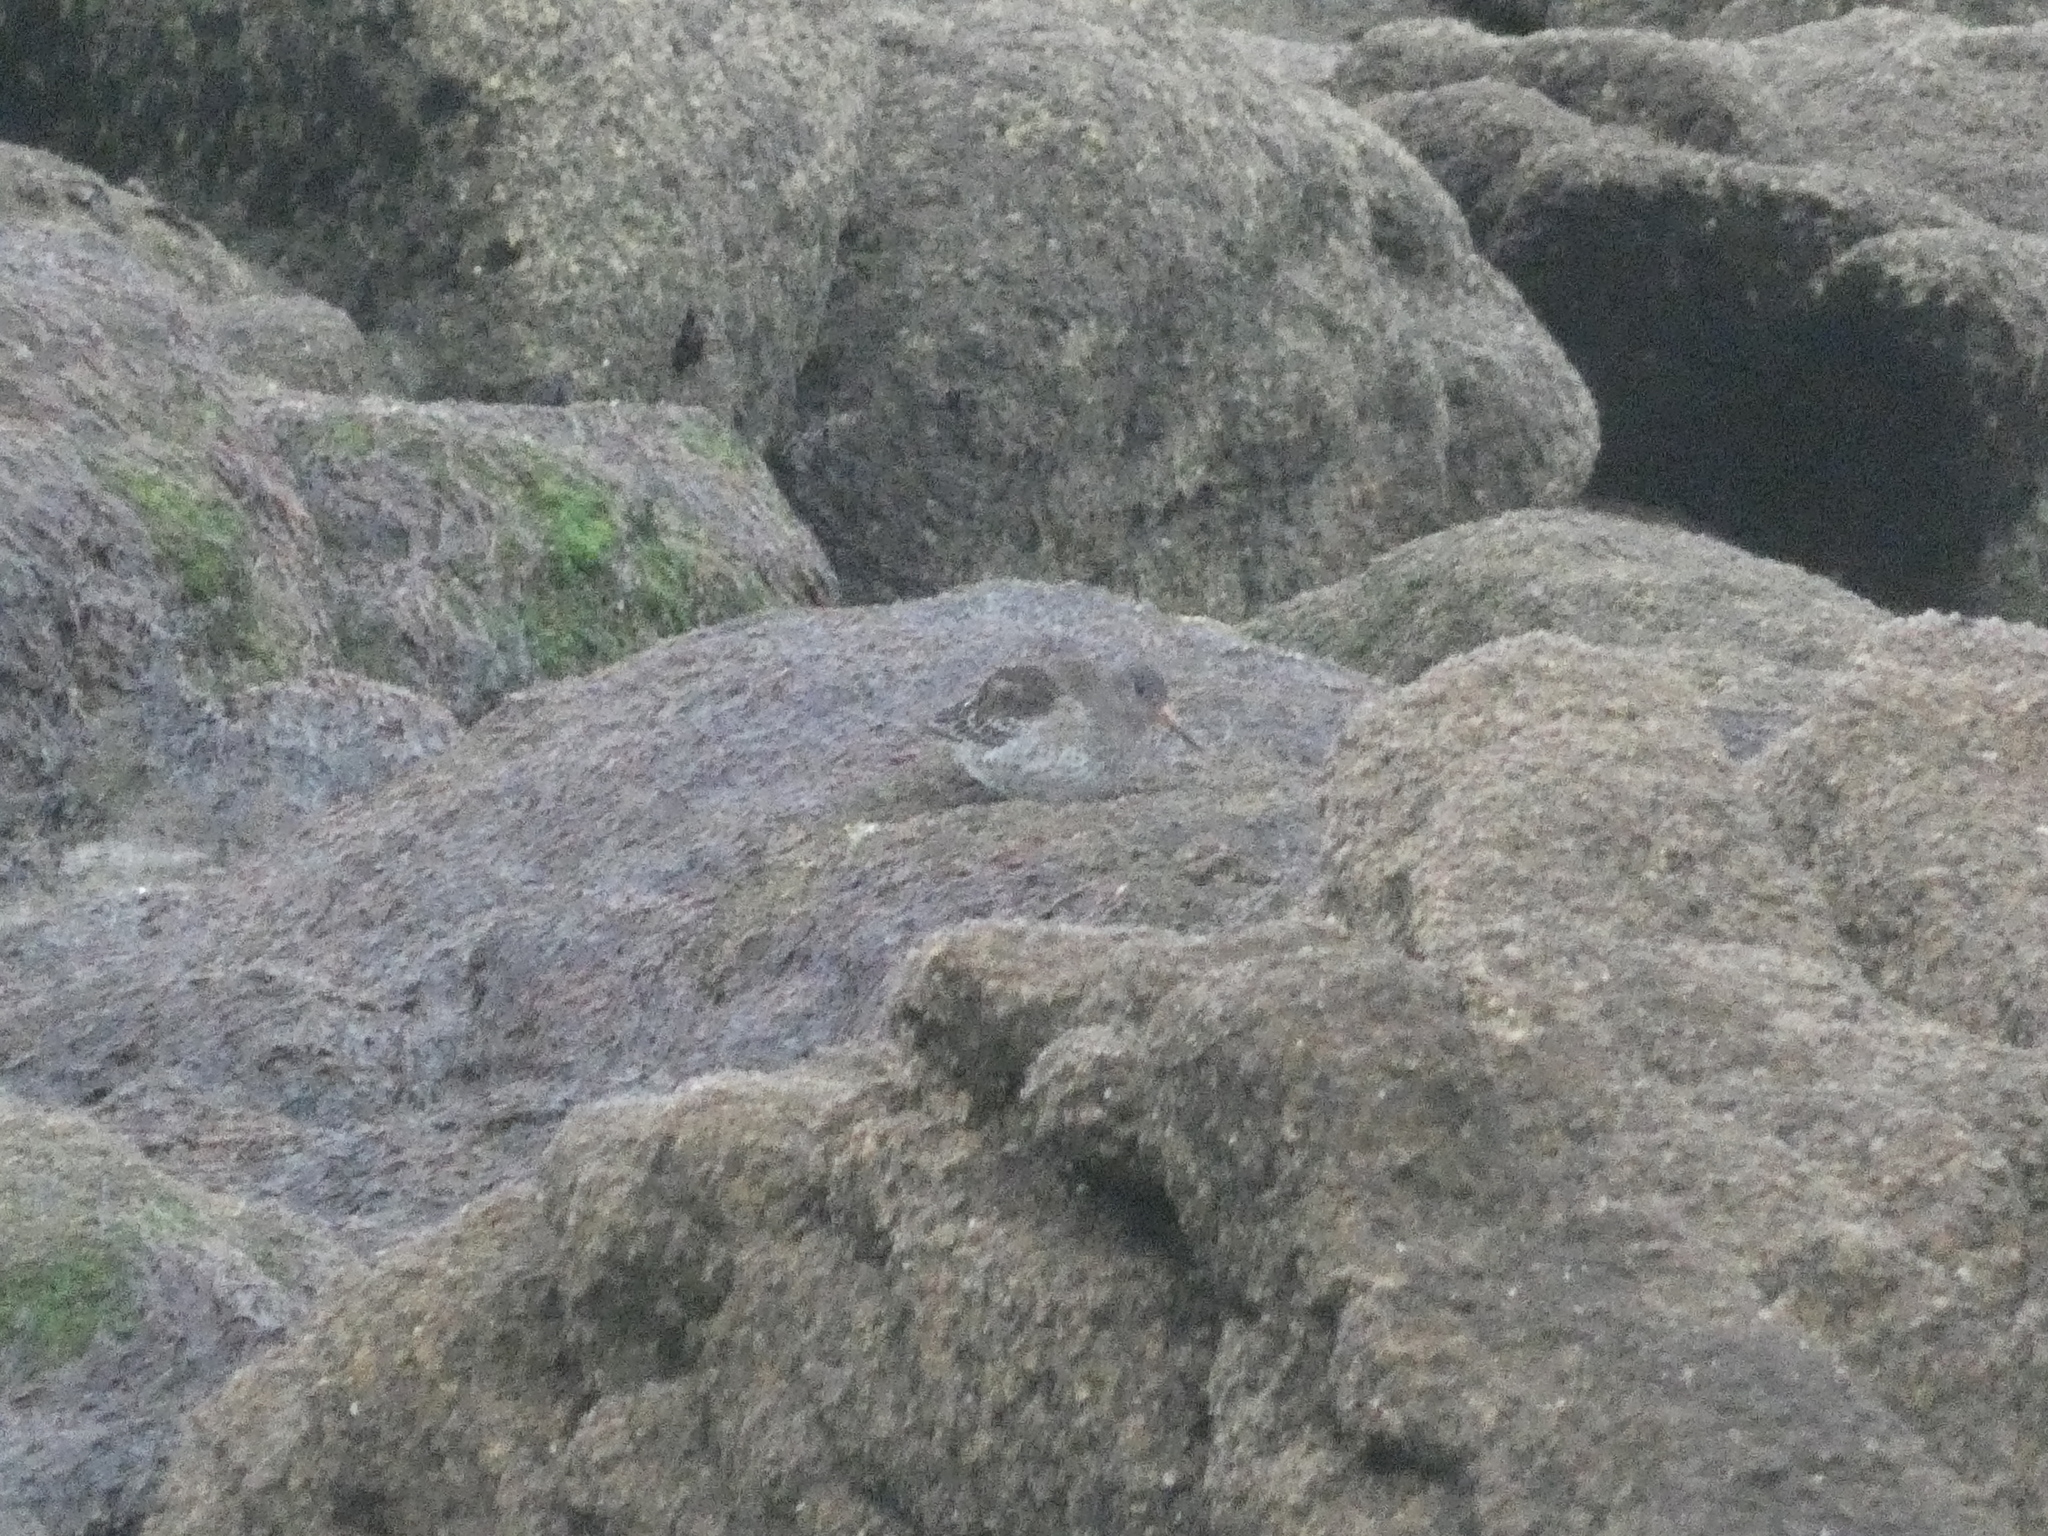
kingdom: Animalia
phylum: Chordata
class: Aves
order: Charadriiformes
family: Scolopacidae
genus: Calidris
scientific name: Calidris maritima
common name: Purple sandpiper
